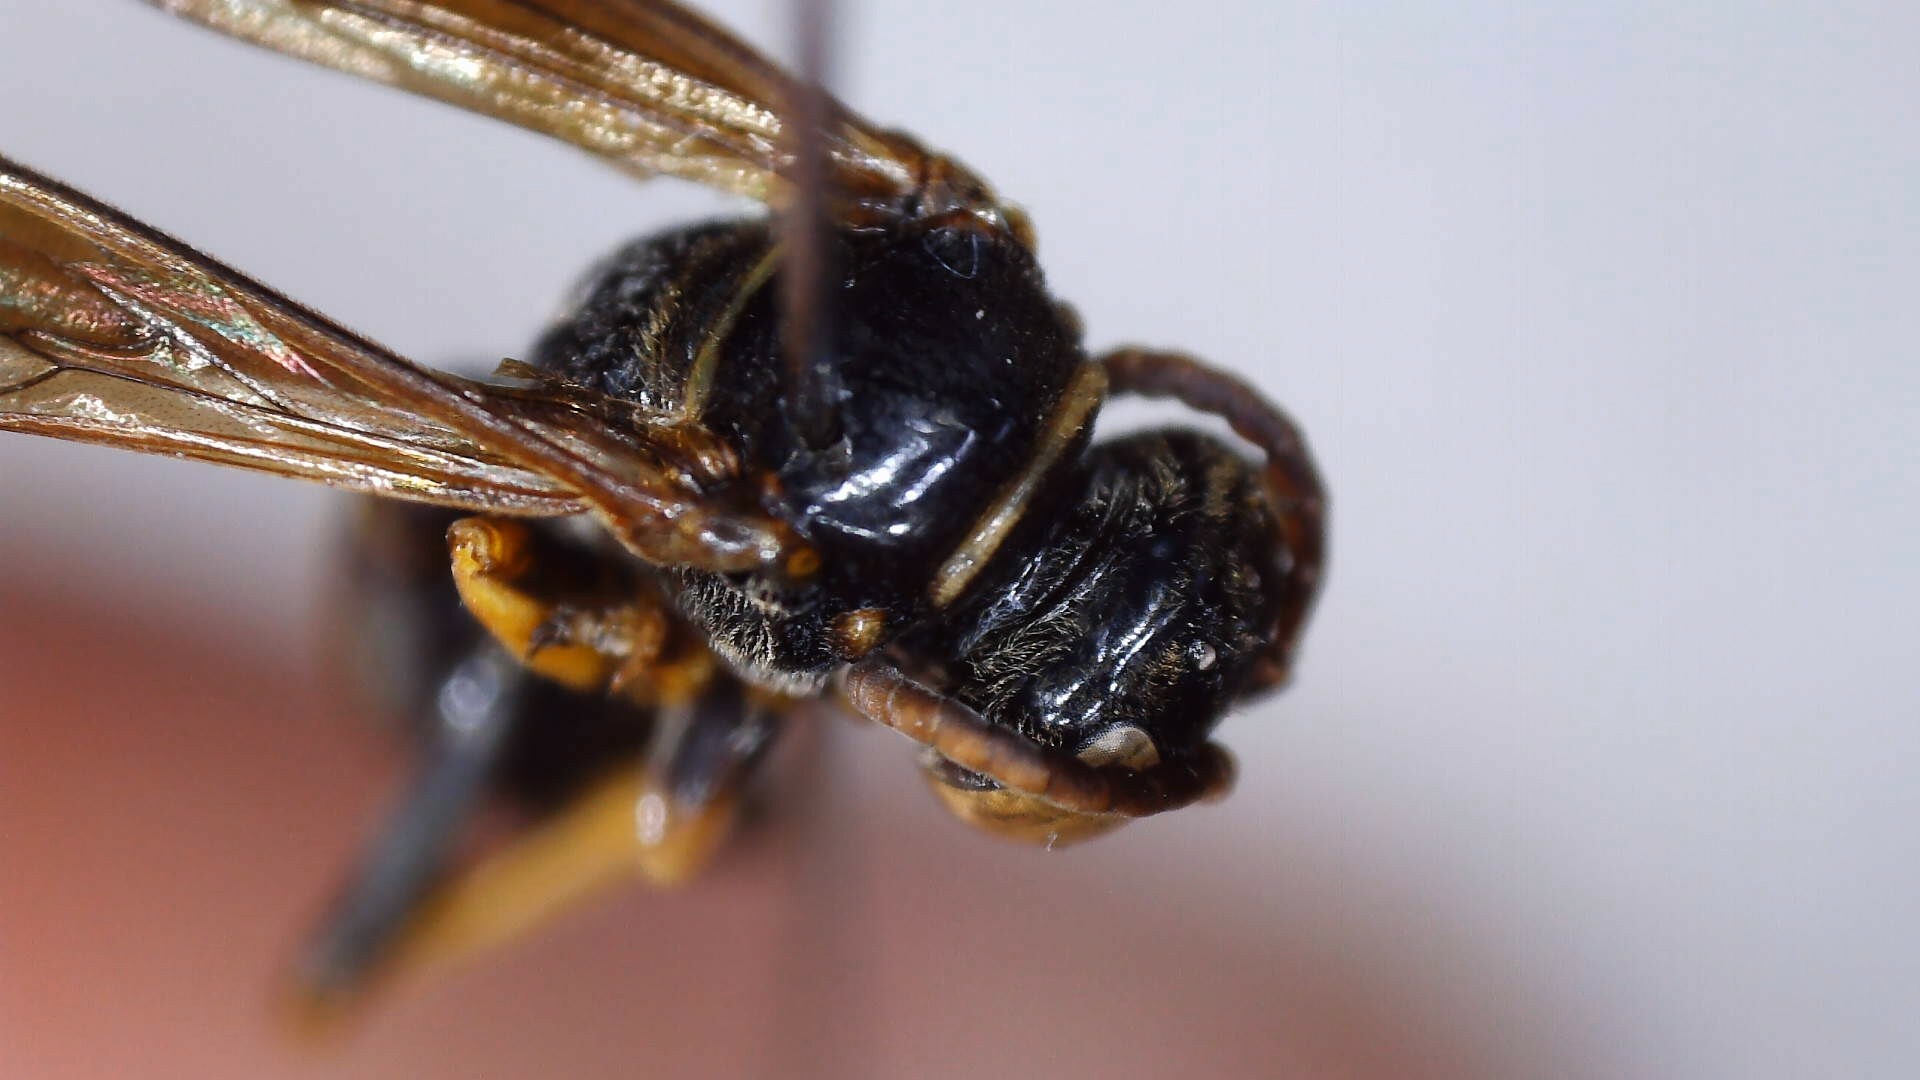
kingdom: Animalia
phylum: Arthropoda
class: Insecta
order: Hymenoptera
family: Crabronidae
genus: Saygorytes
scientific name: Saygorytes phaleratus
